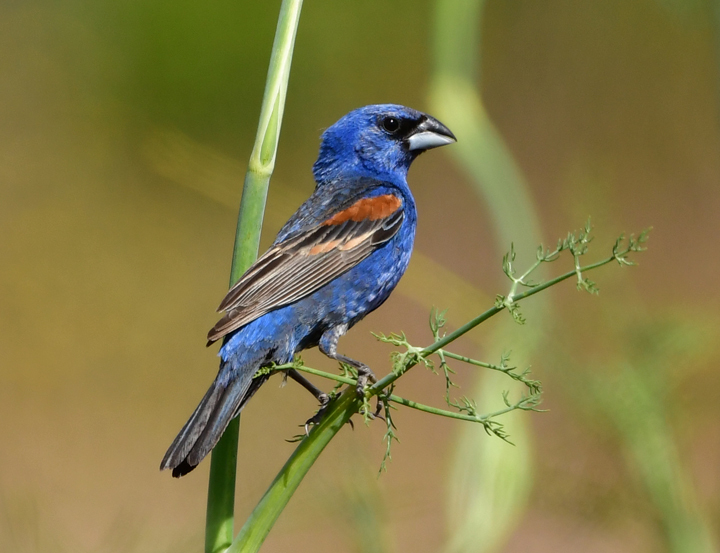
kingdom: Animalia
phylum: Chordata
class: Aves
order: Passeriformes
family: Cardinalidae
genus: Passerina
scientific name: Passerina caerulea
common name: Blue grosbeak
